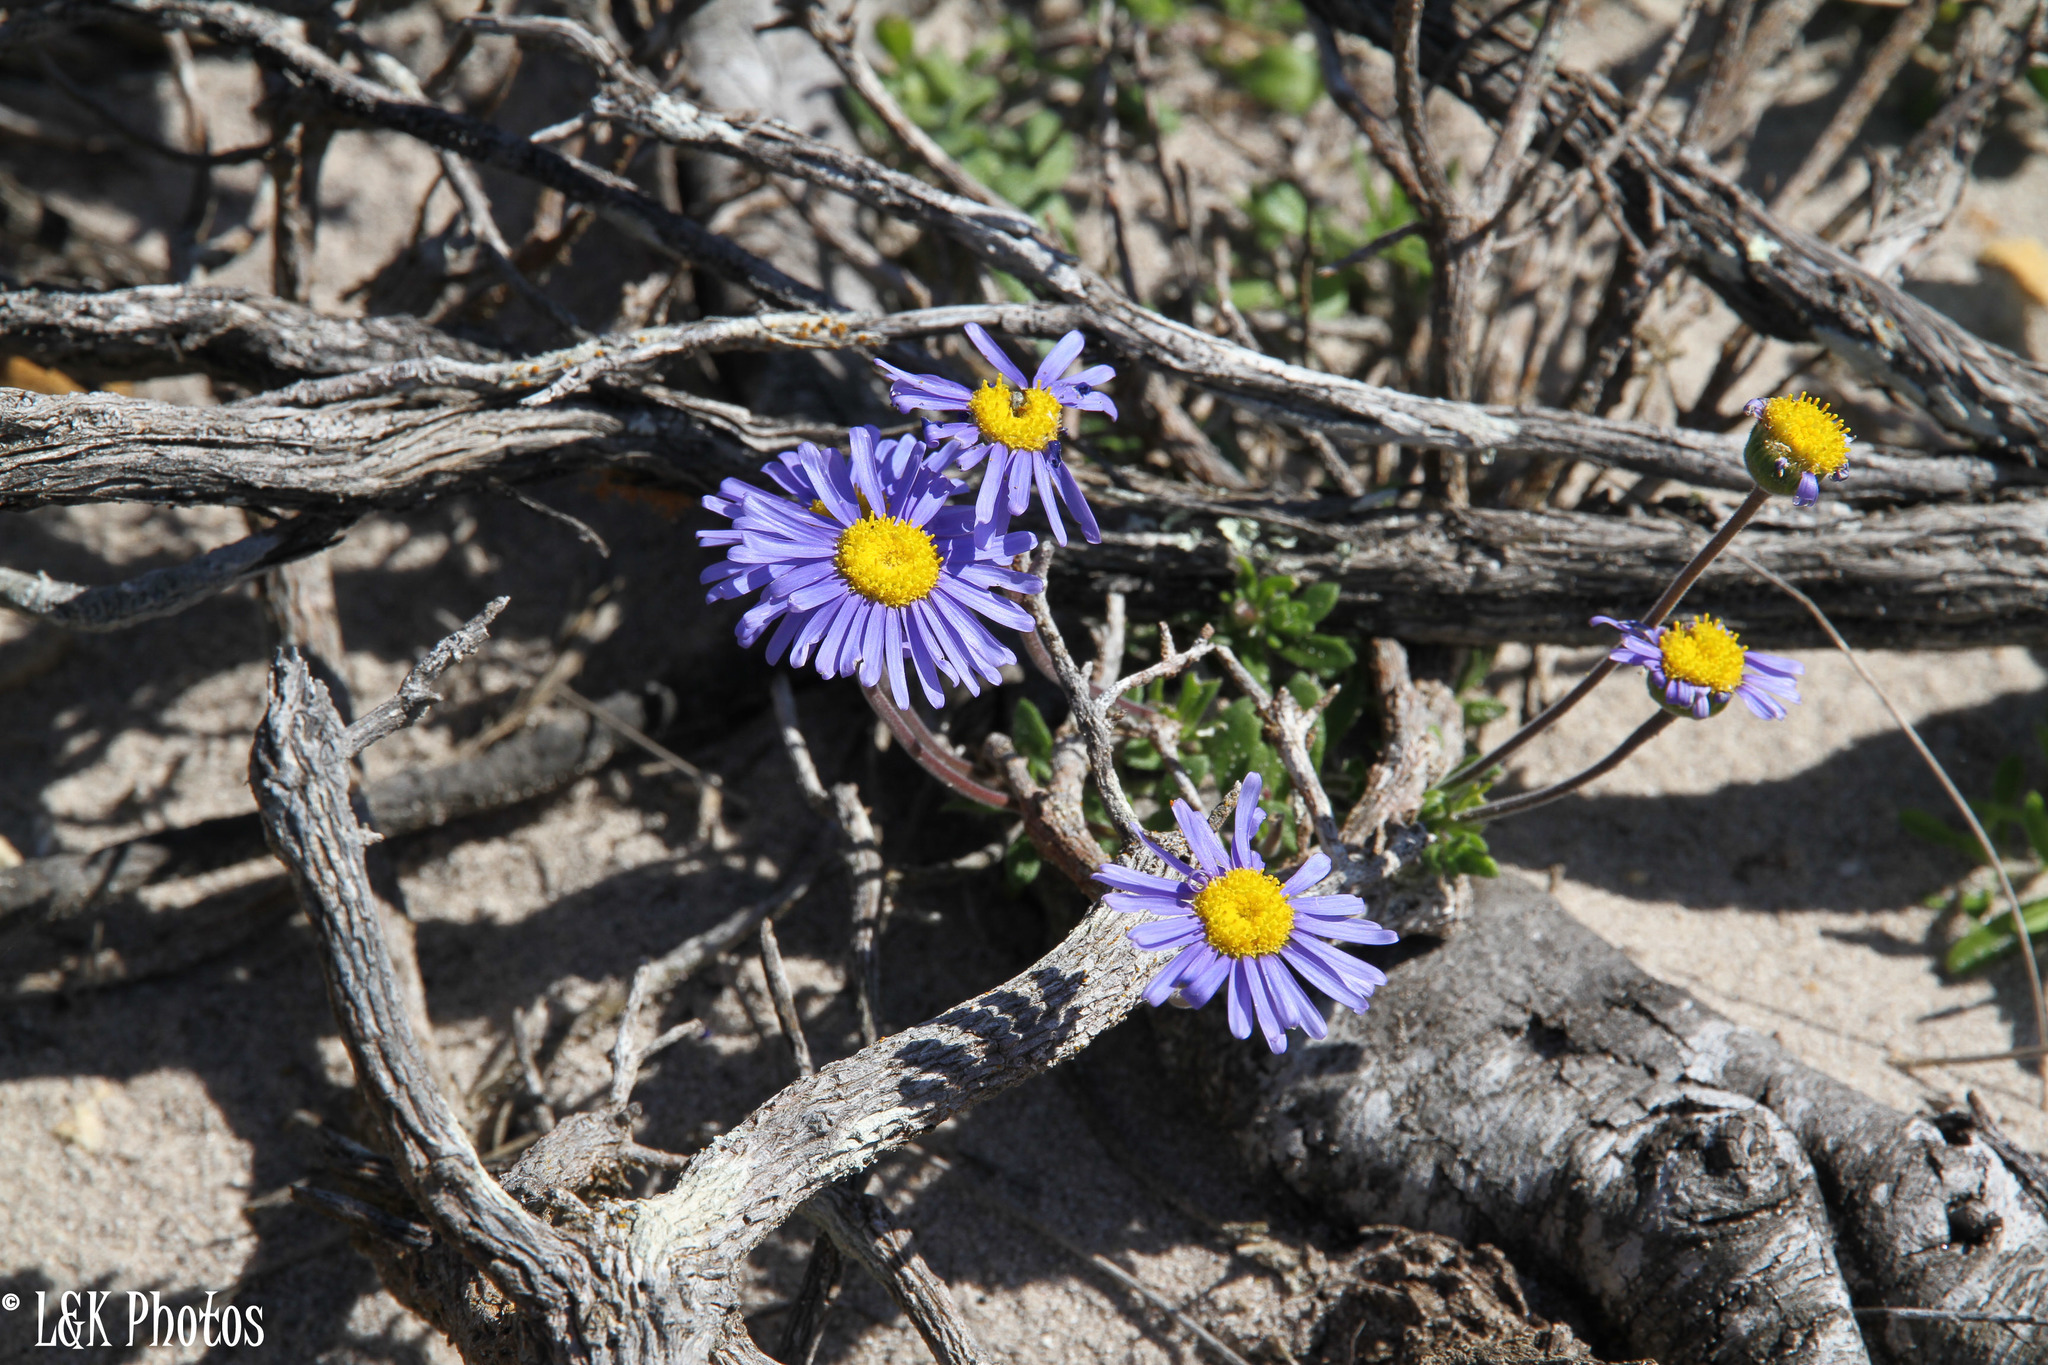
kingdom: Plantae
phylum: Tracheophyta
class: Magnoliopsida
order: Asterales
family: Asteraceae
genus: Felicia
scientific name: Felicia amoena
